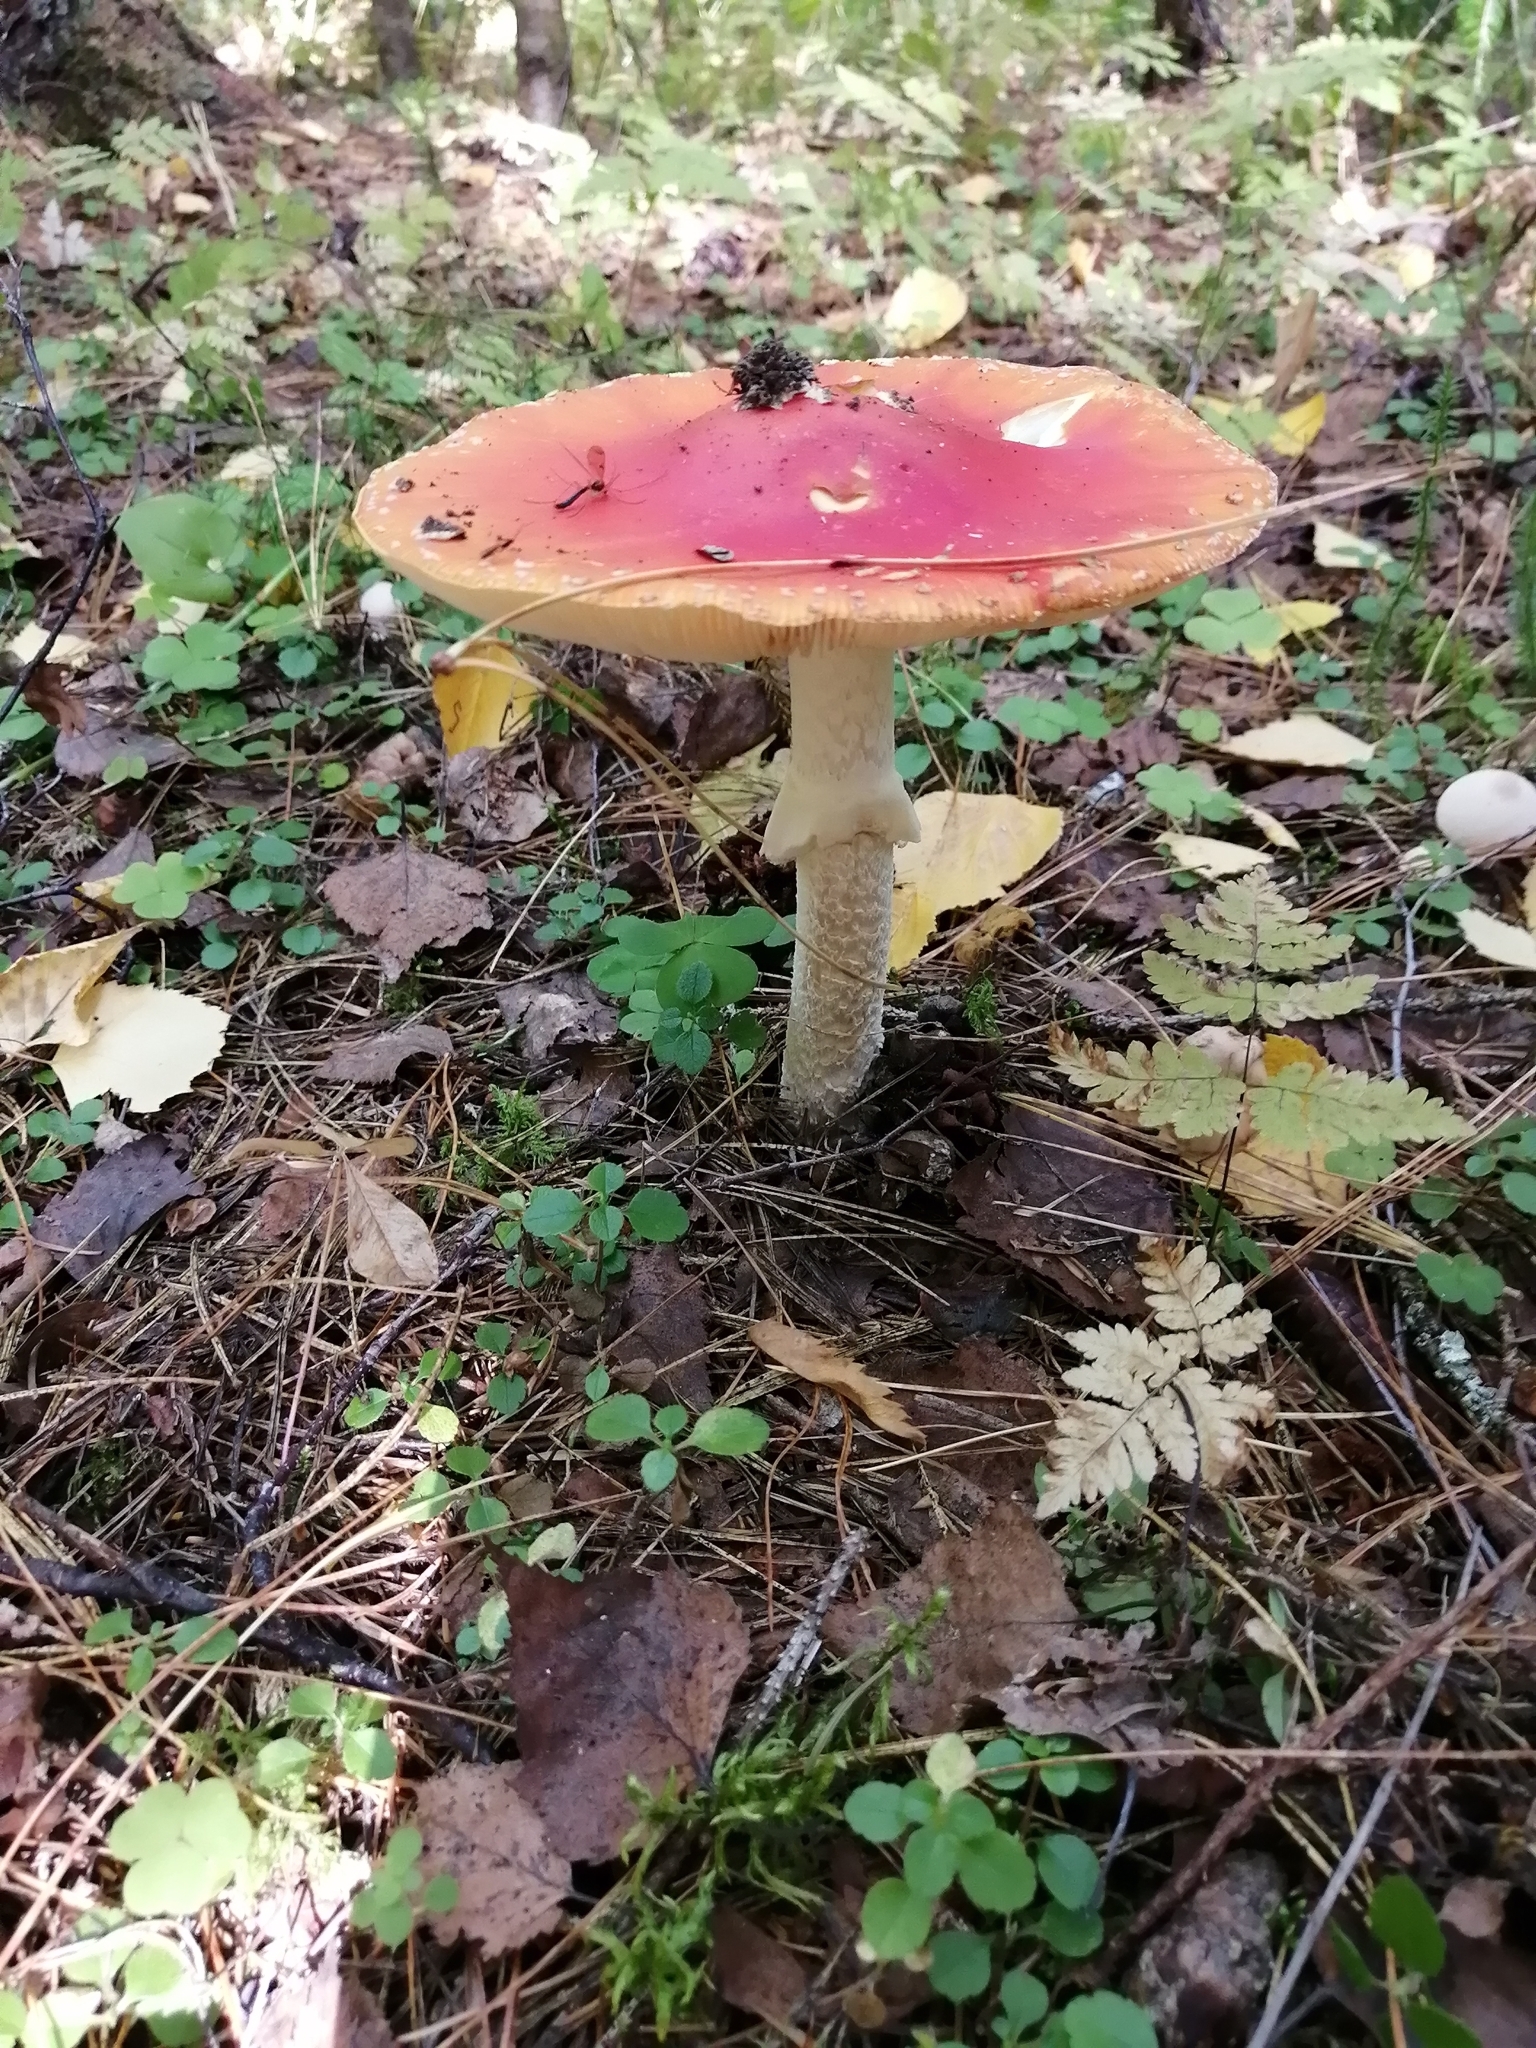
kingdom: Fungi
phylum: Basidiomycota
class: Agaricomycetes
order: Agaricales
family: Amanitaceae
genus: Amanita
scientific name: Amanita muscaria
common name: Fly agaric
